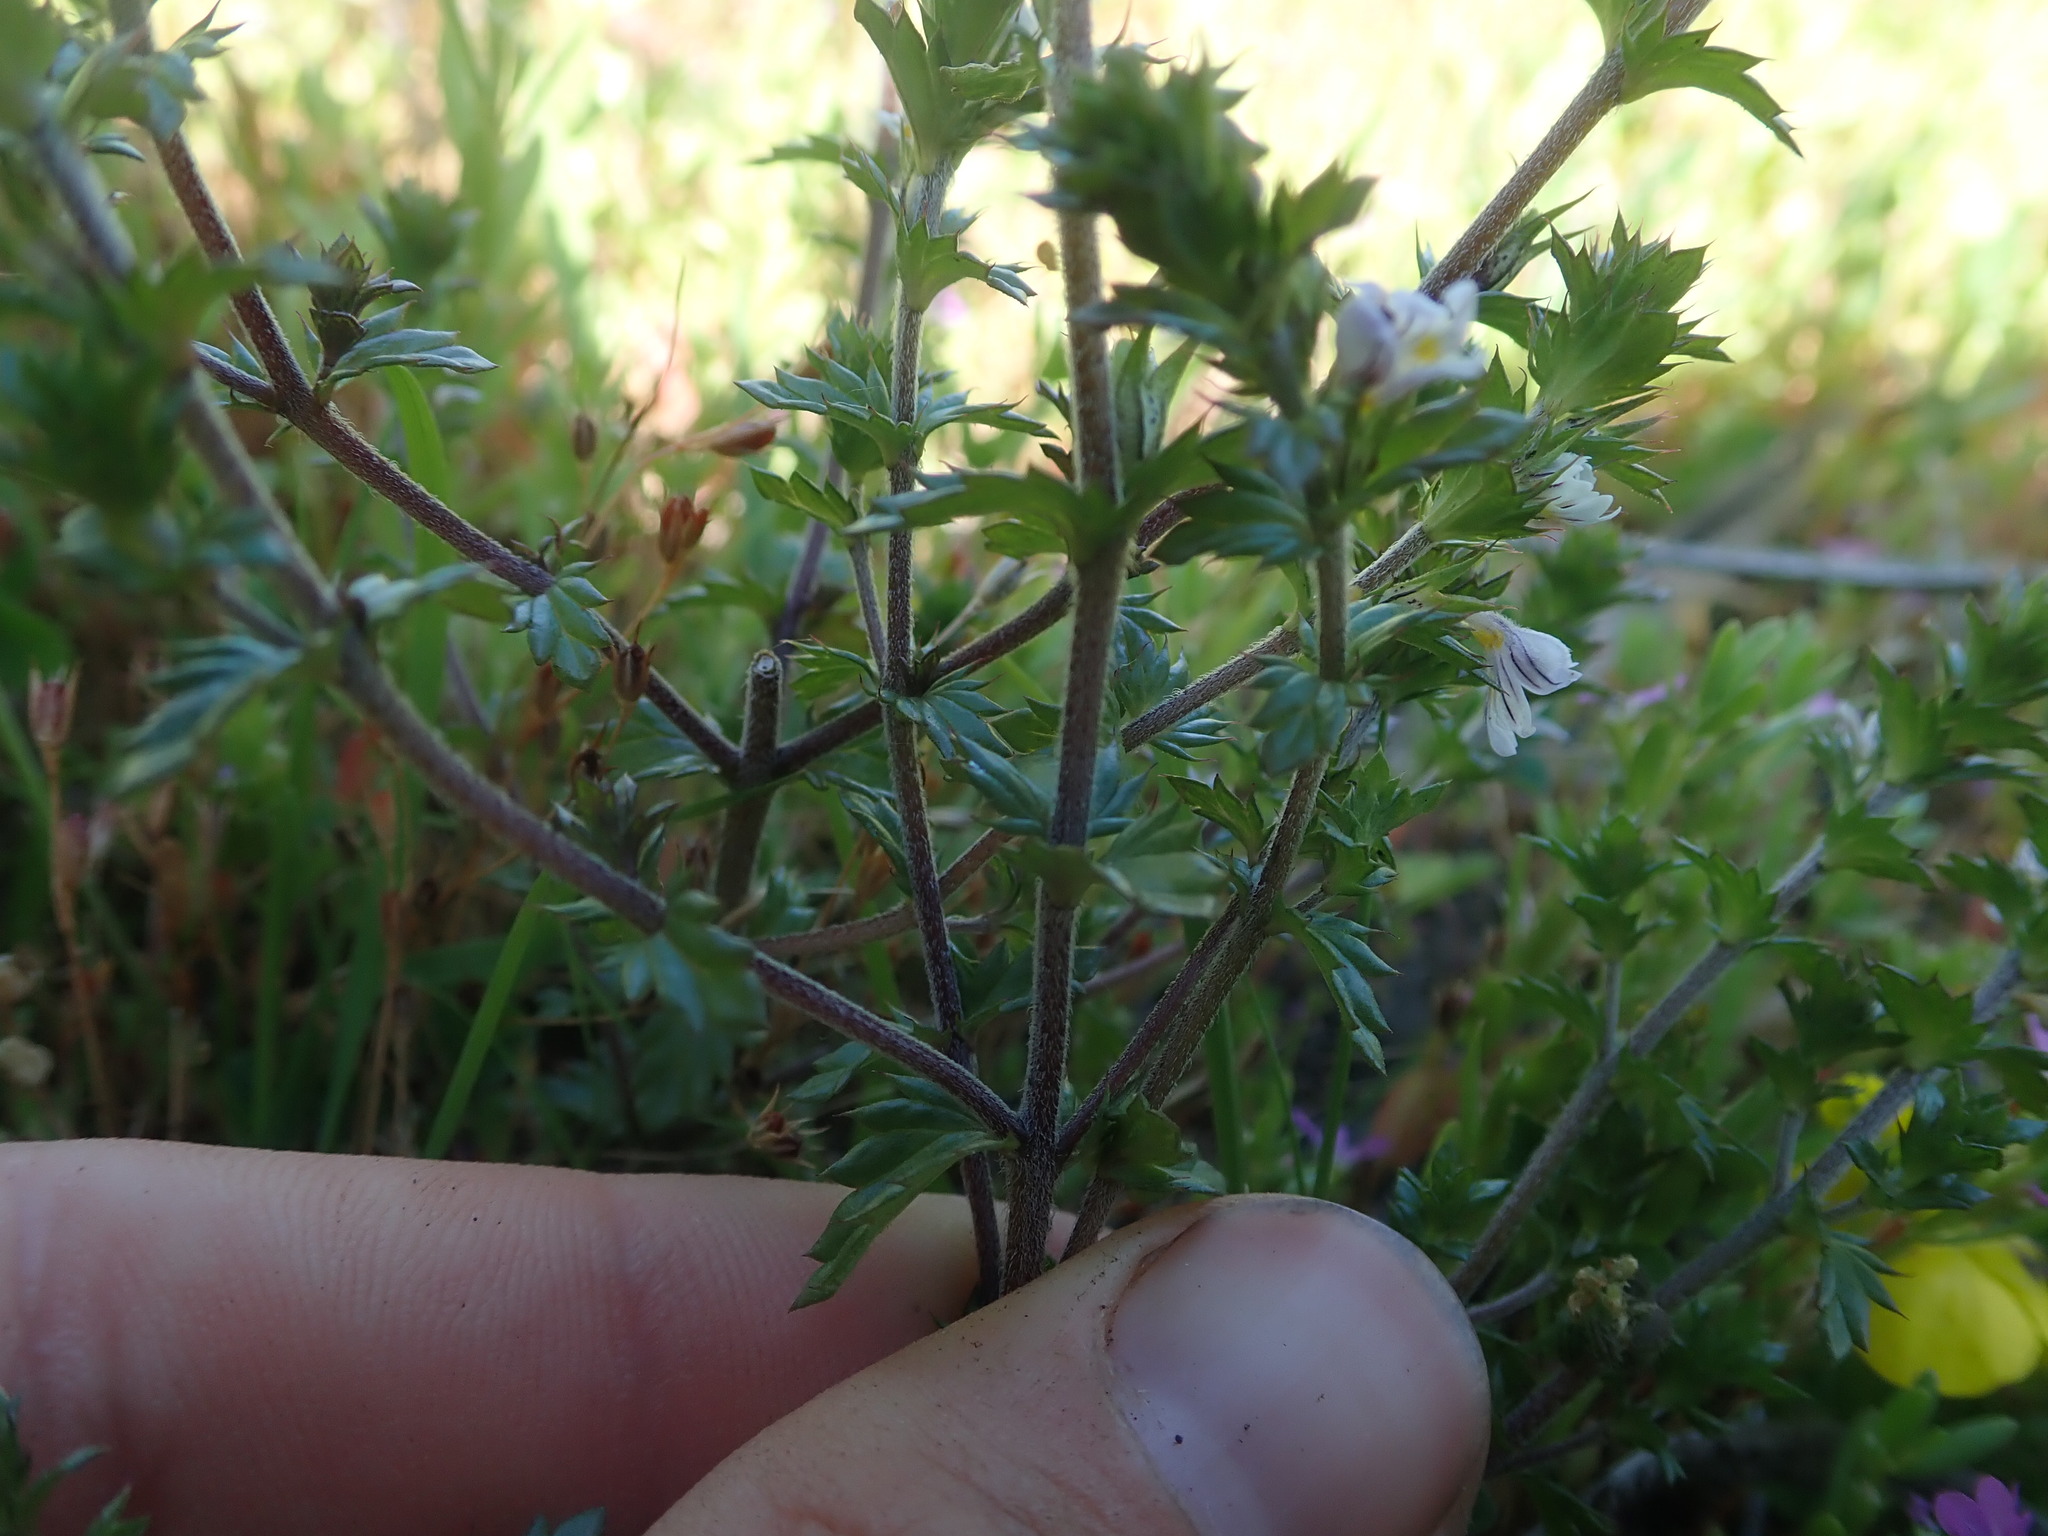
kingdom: Plantae
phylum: Tracheophyta
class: Magnoliopsida
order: Lamiales
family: Orobanchaceae
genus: Euphrasia
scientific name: Euphrasia nemorosa
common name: Common eyebright
